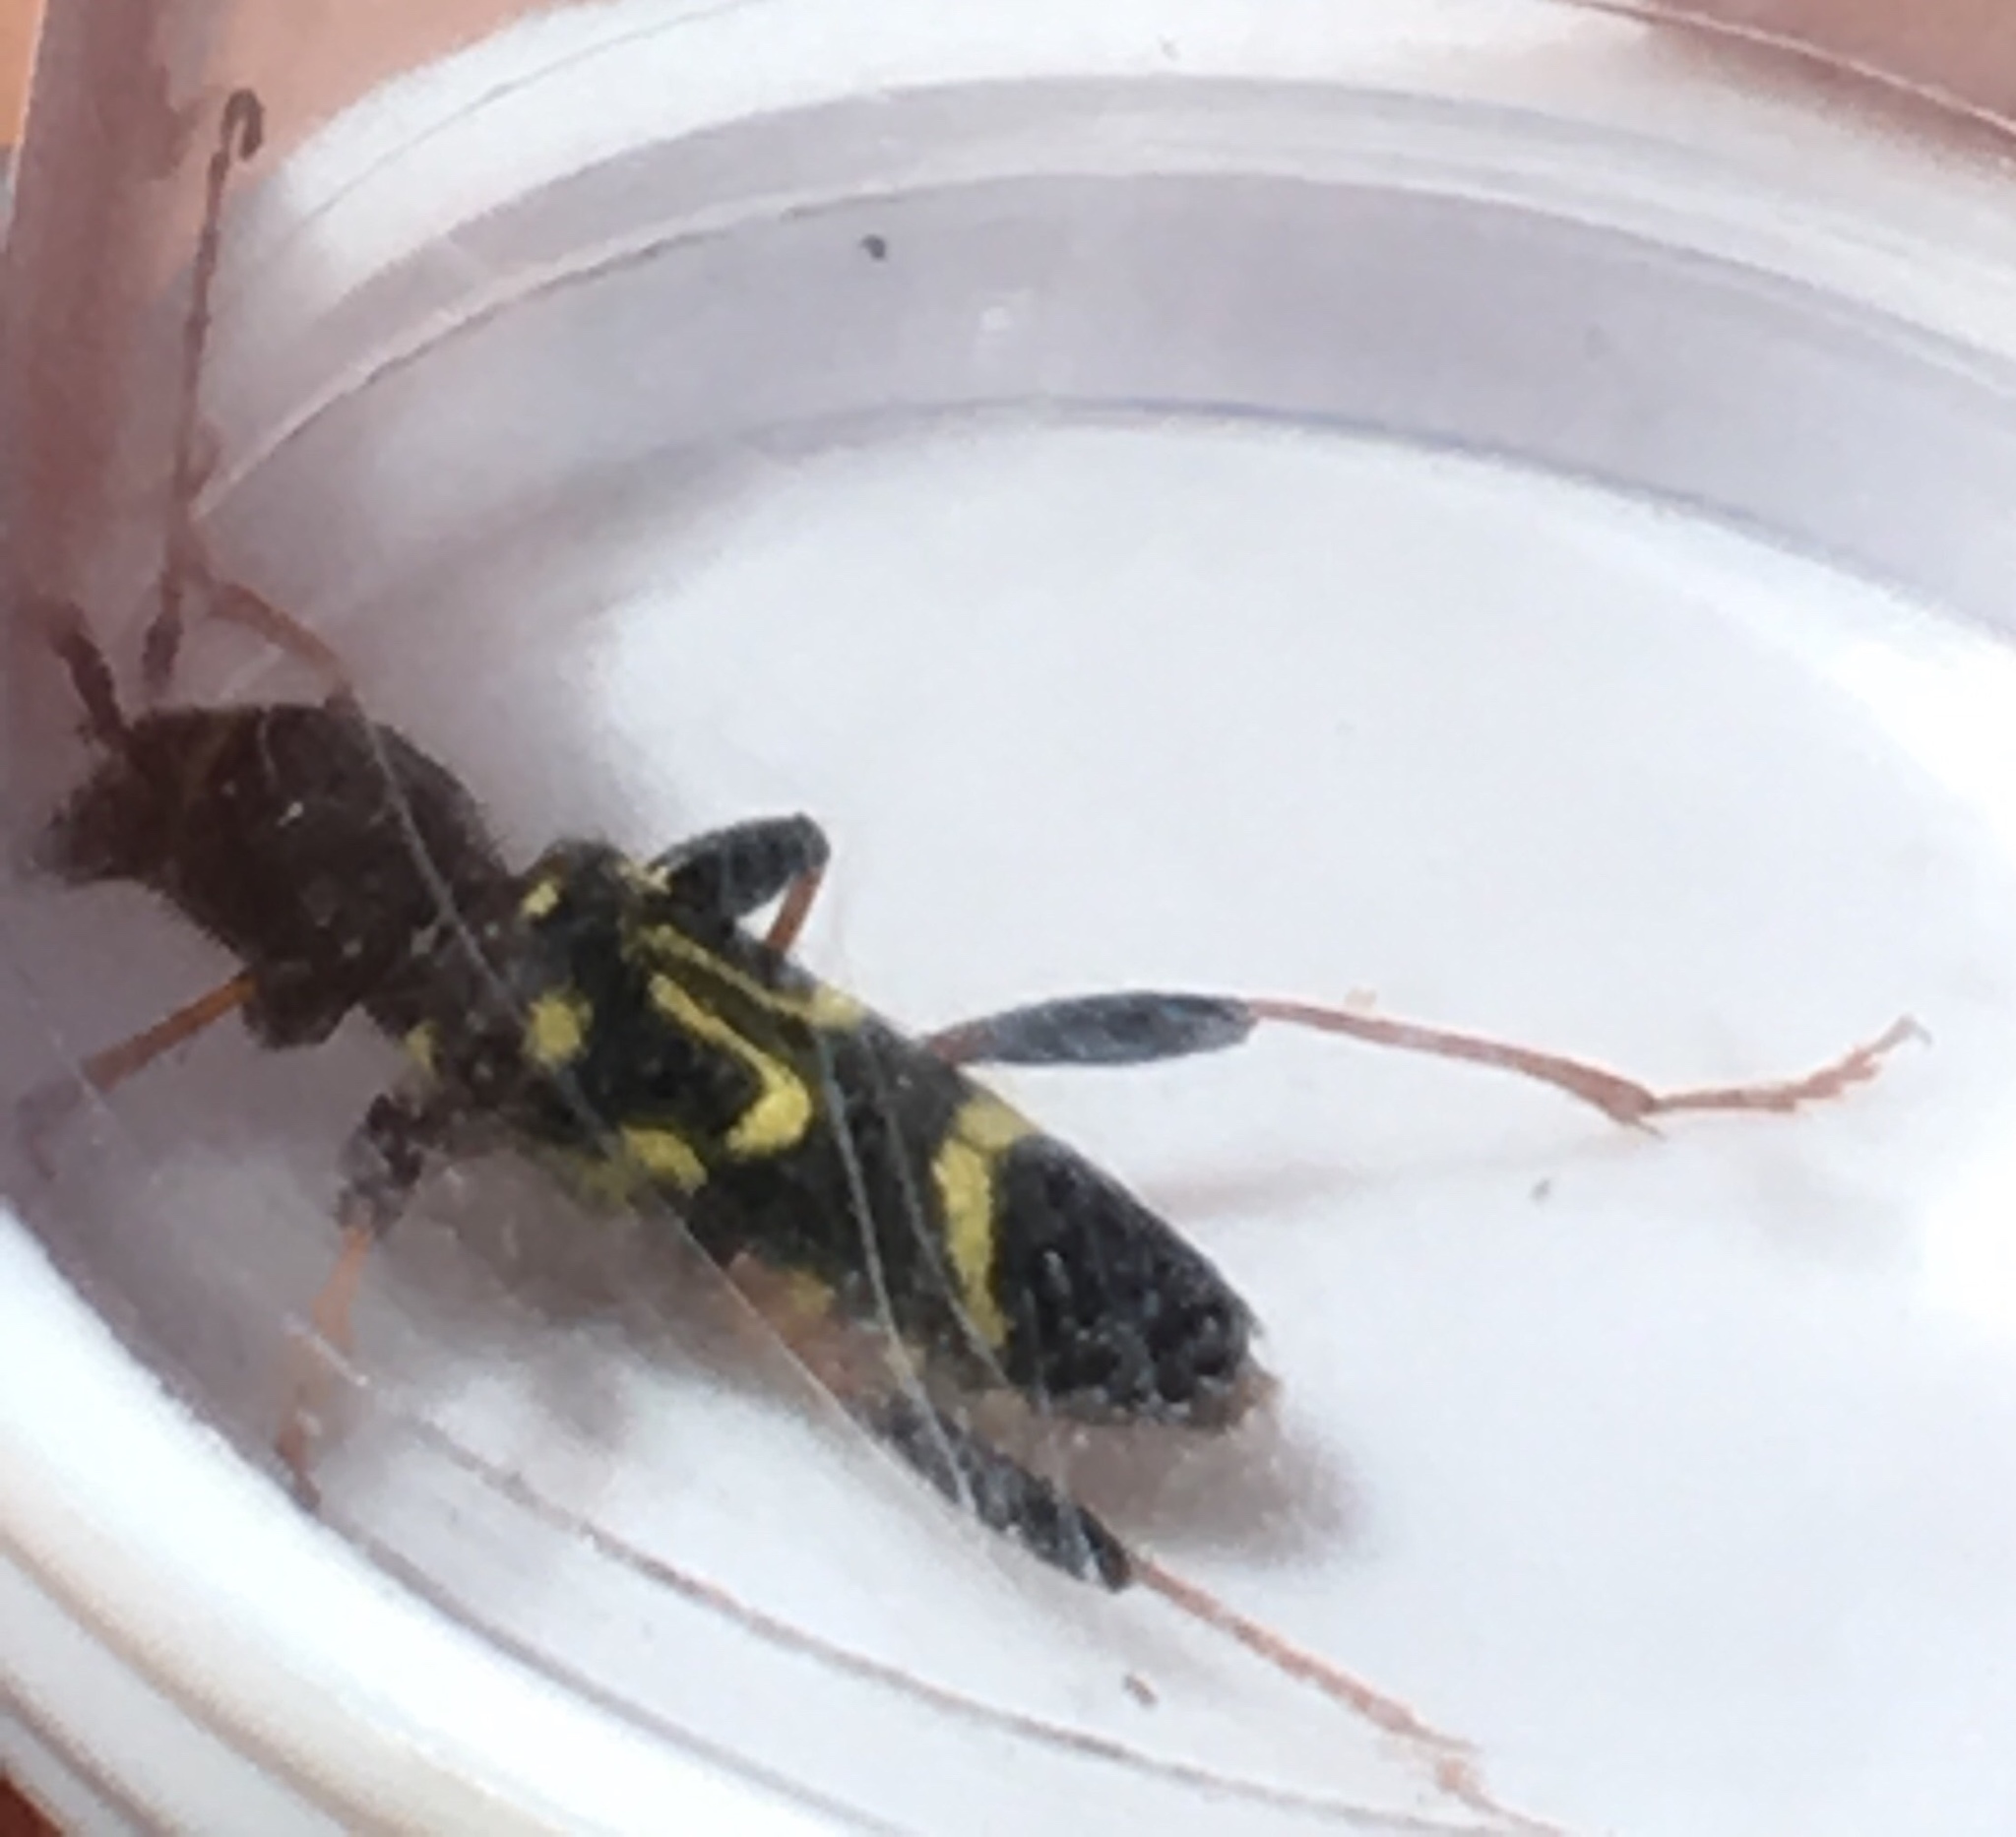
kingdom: Animalia
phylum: Arthropoda
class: Insecta
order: Coleoptera
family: Cerambycidae
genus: Clytus
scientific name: Clytus ruricola
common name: Round-necked longhorn beetle
